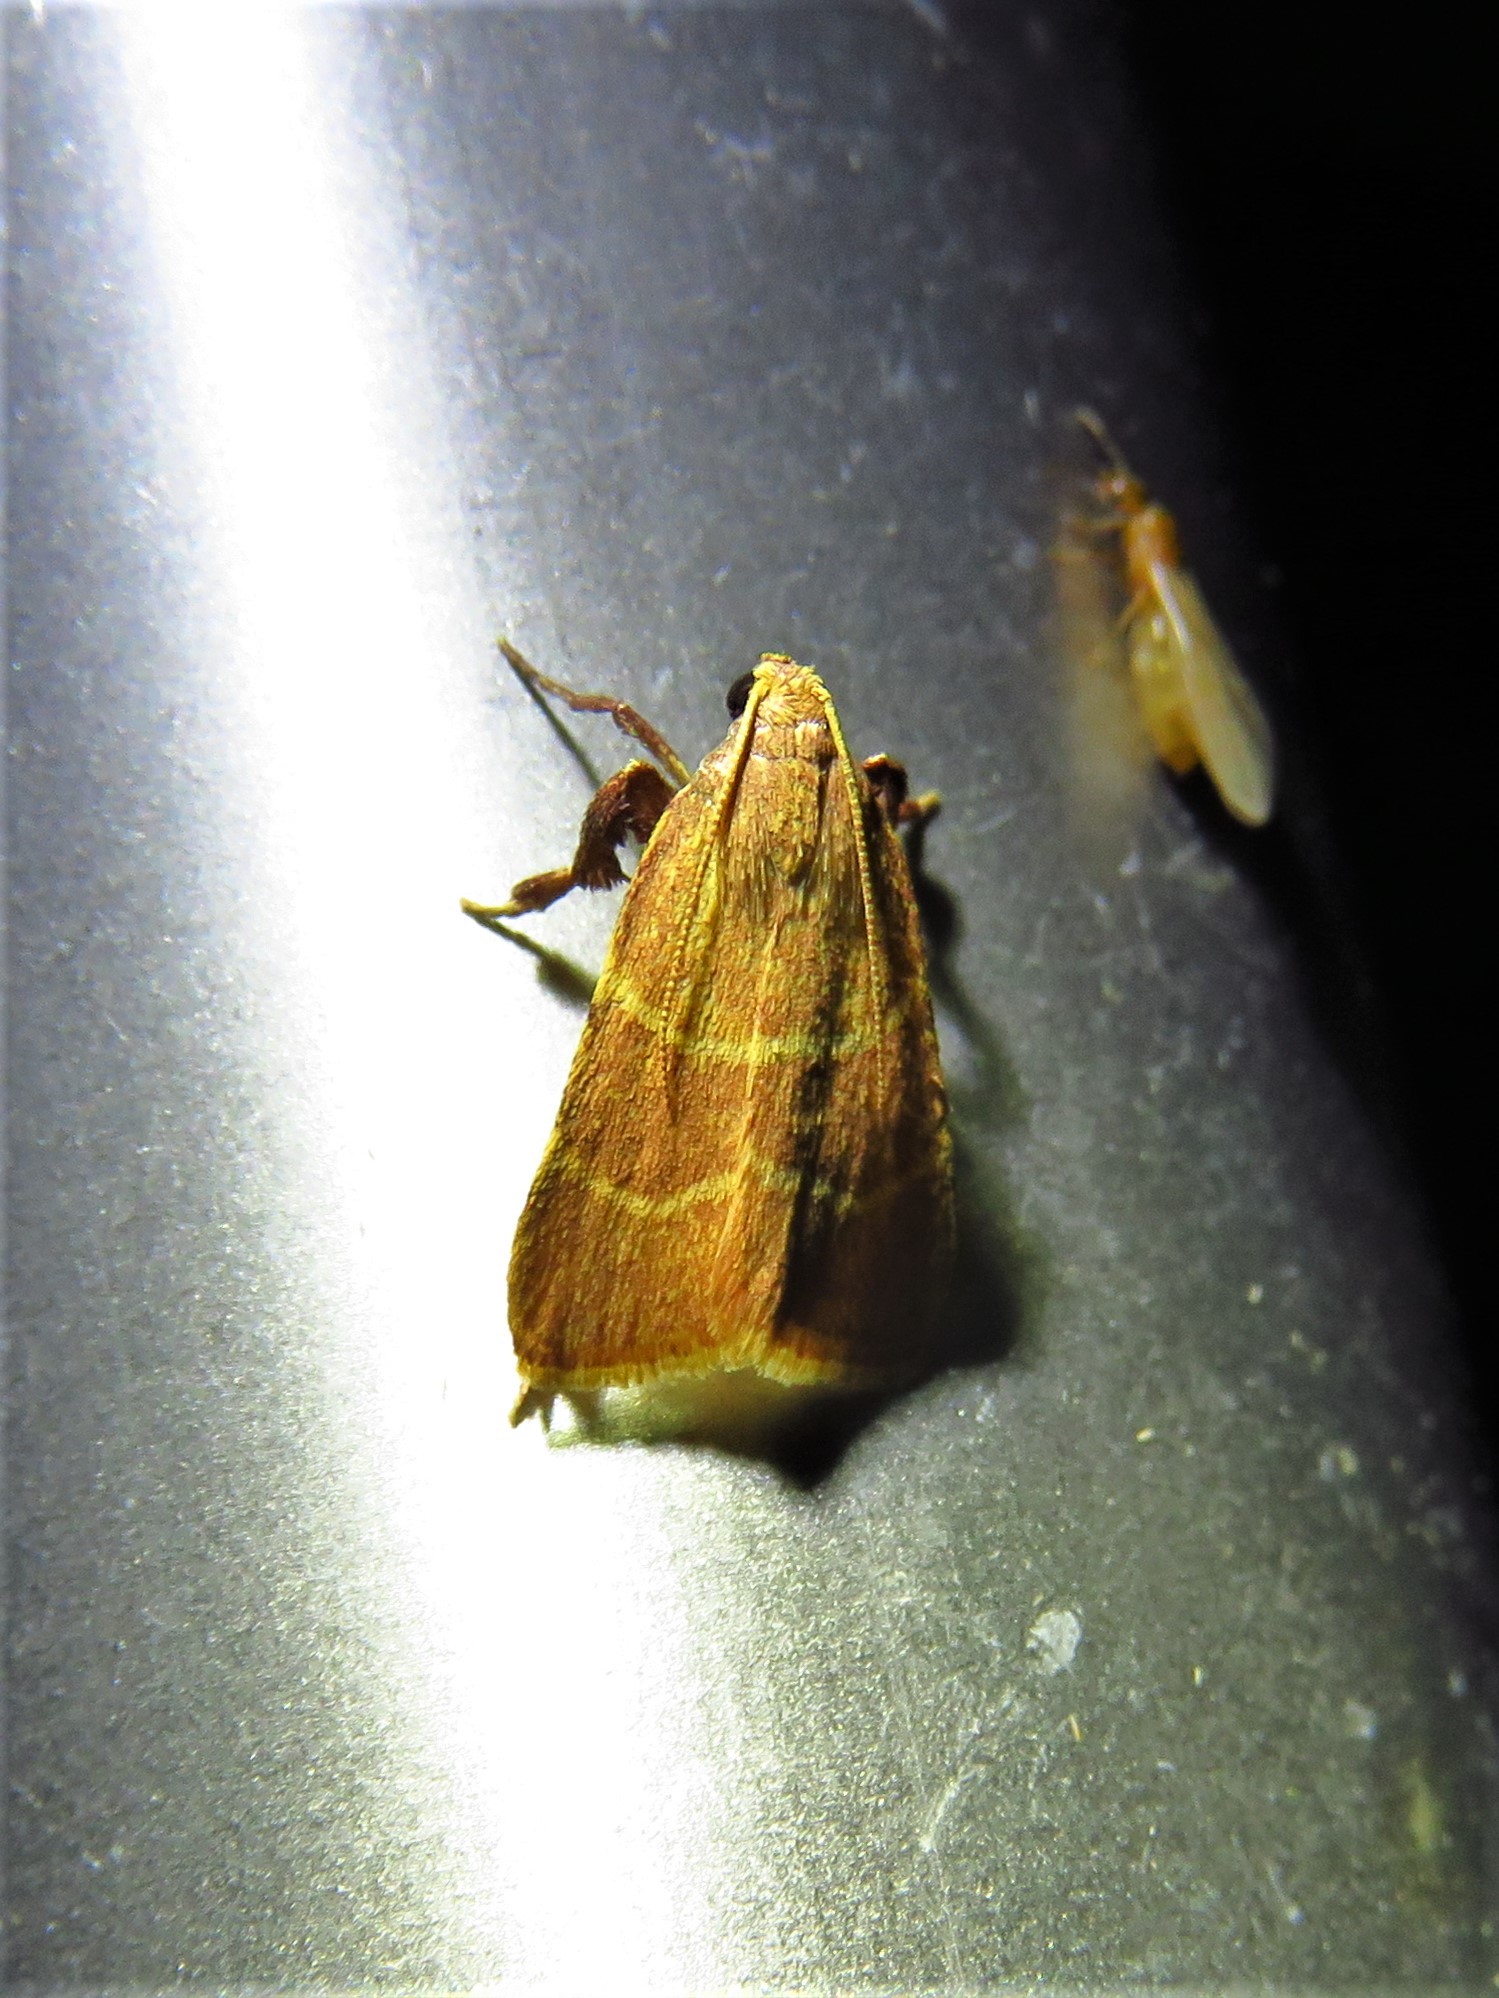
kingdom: Animalia
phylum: Arthropoda
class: Insecta
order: Lepidoptera
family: Pyralidae
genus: Parachma
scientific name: Parachma ochracealis
